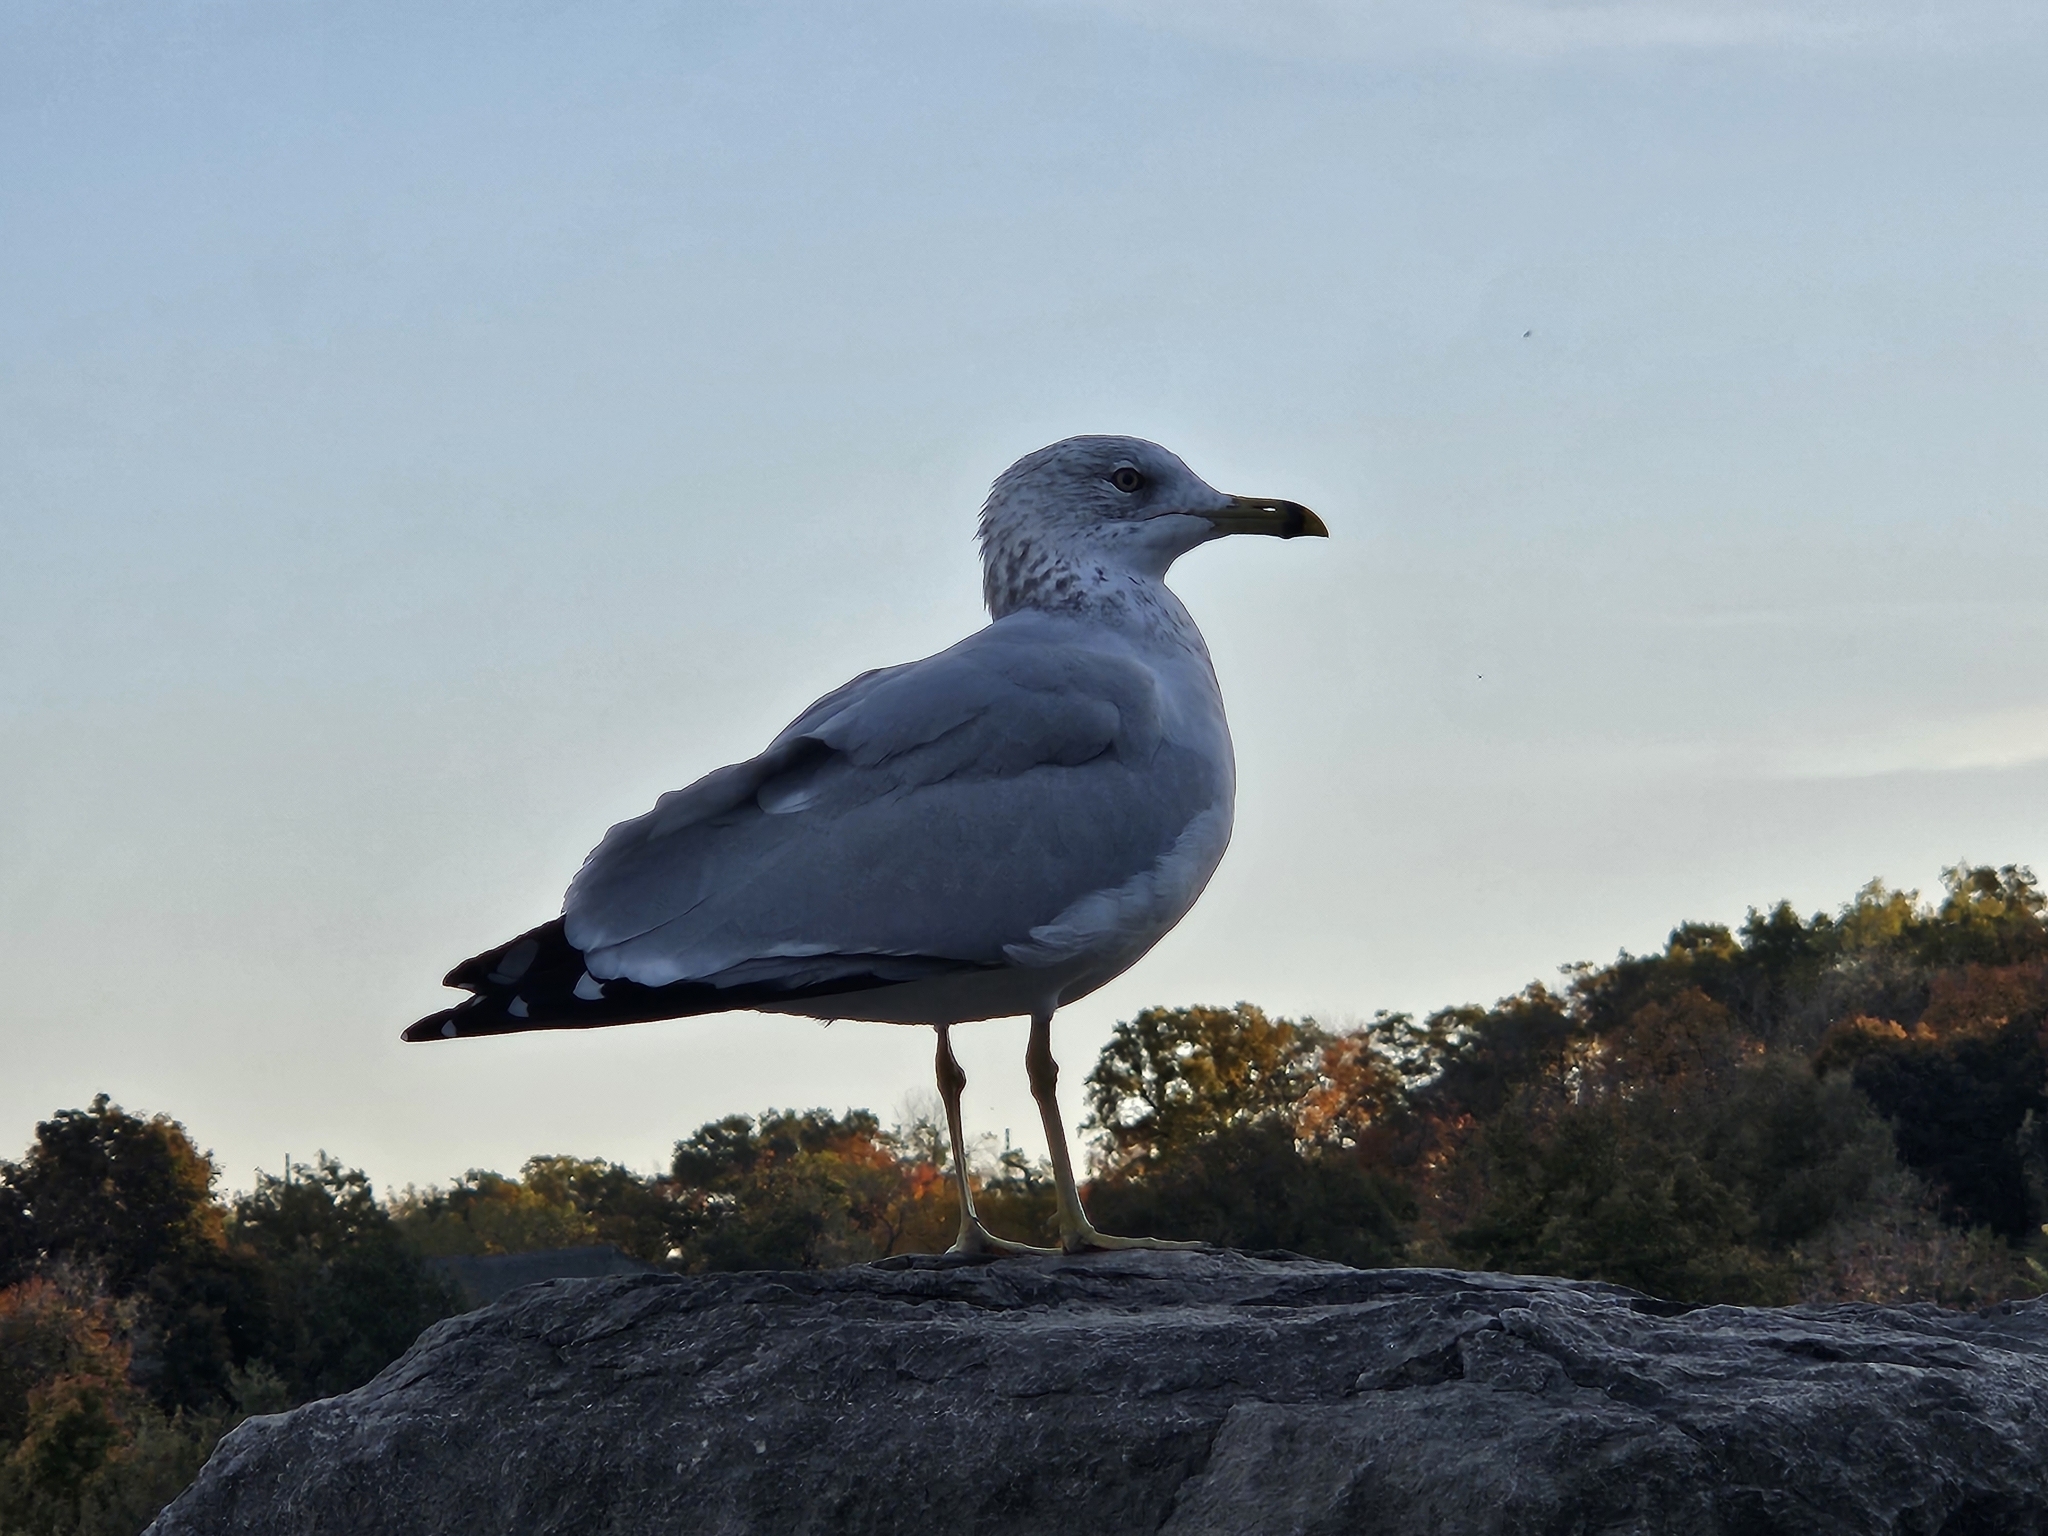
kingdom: Animalia
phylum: Chordata
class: Aves
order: Charadriiformes
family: Laridae
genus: Larus
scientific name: Larus delawarensis
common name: Ring-billed gull
